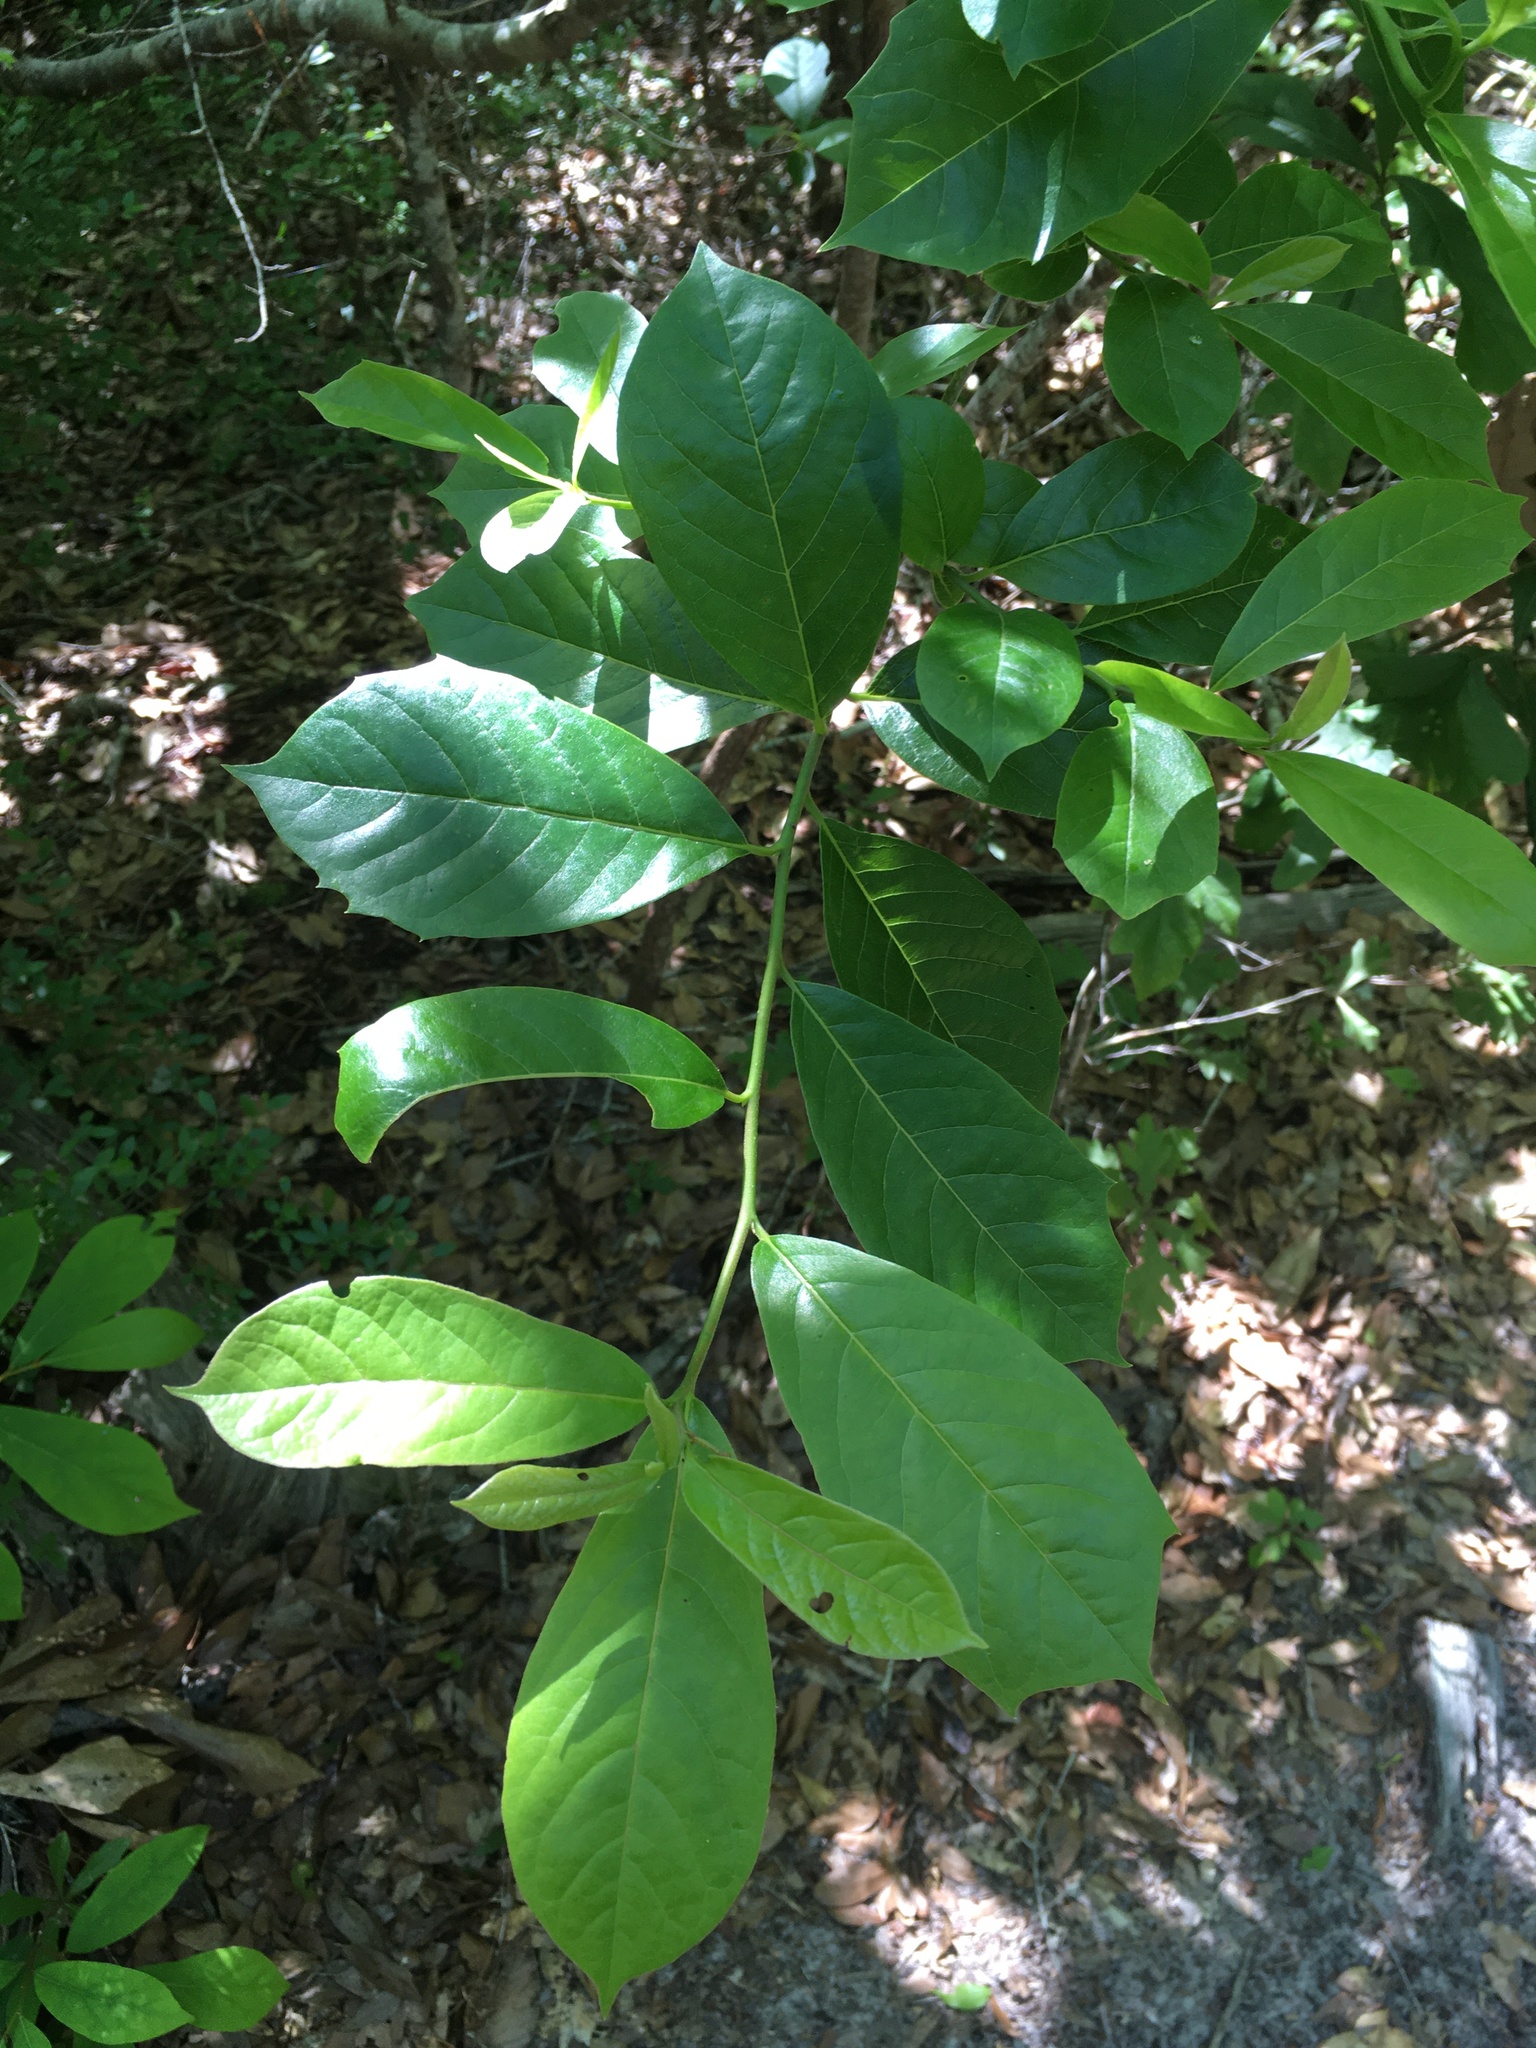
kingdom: Plantae
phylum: Tracheophyta
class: Magnoliopsida
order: Cornales
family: Nyssaceae
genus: Nyssa
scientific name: Nyssa sylvatica
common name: Black tupelo
